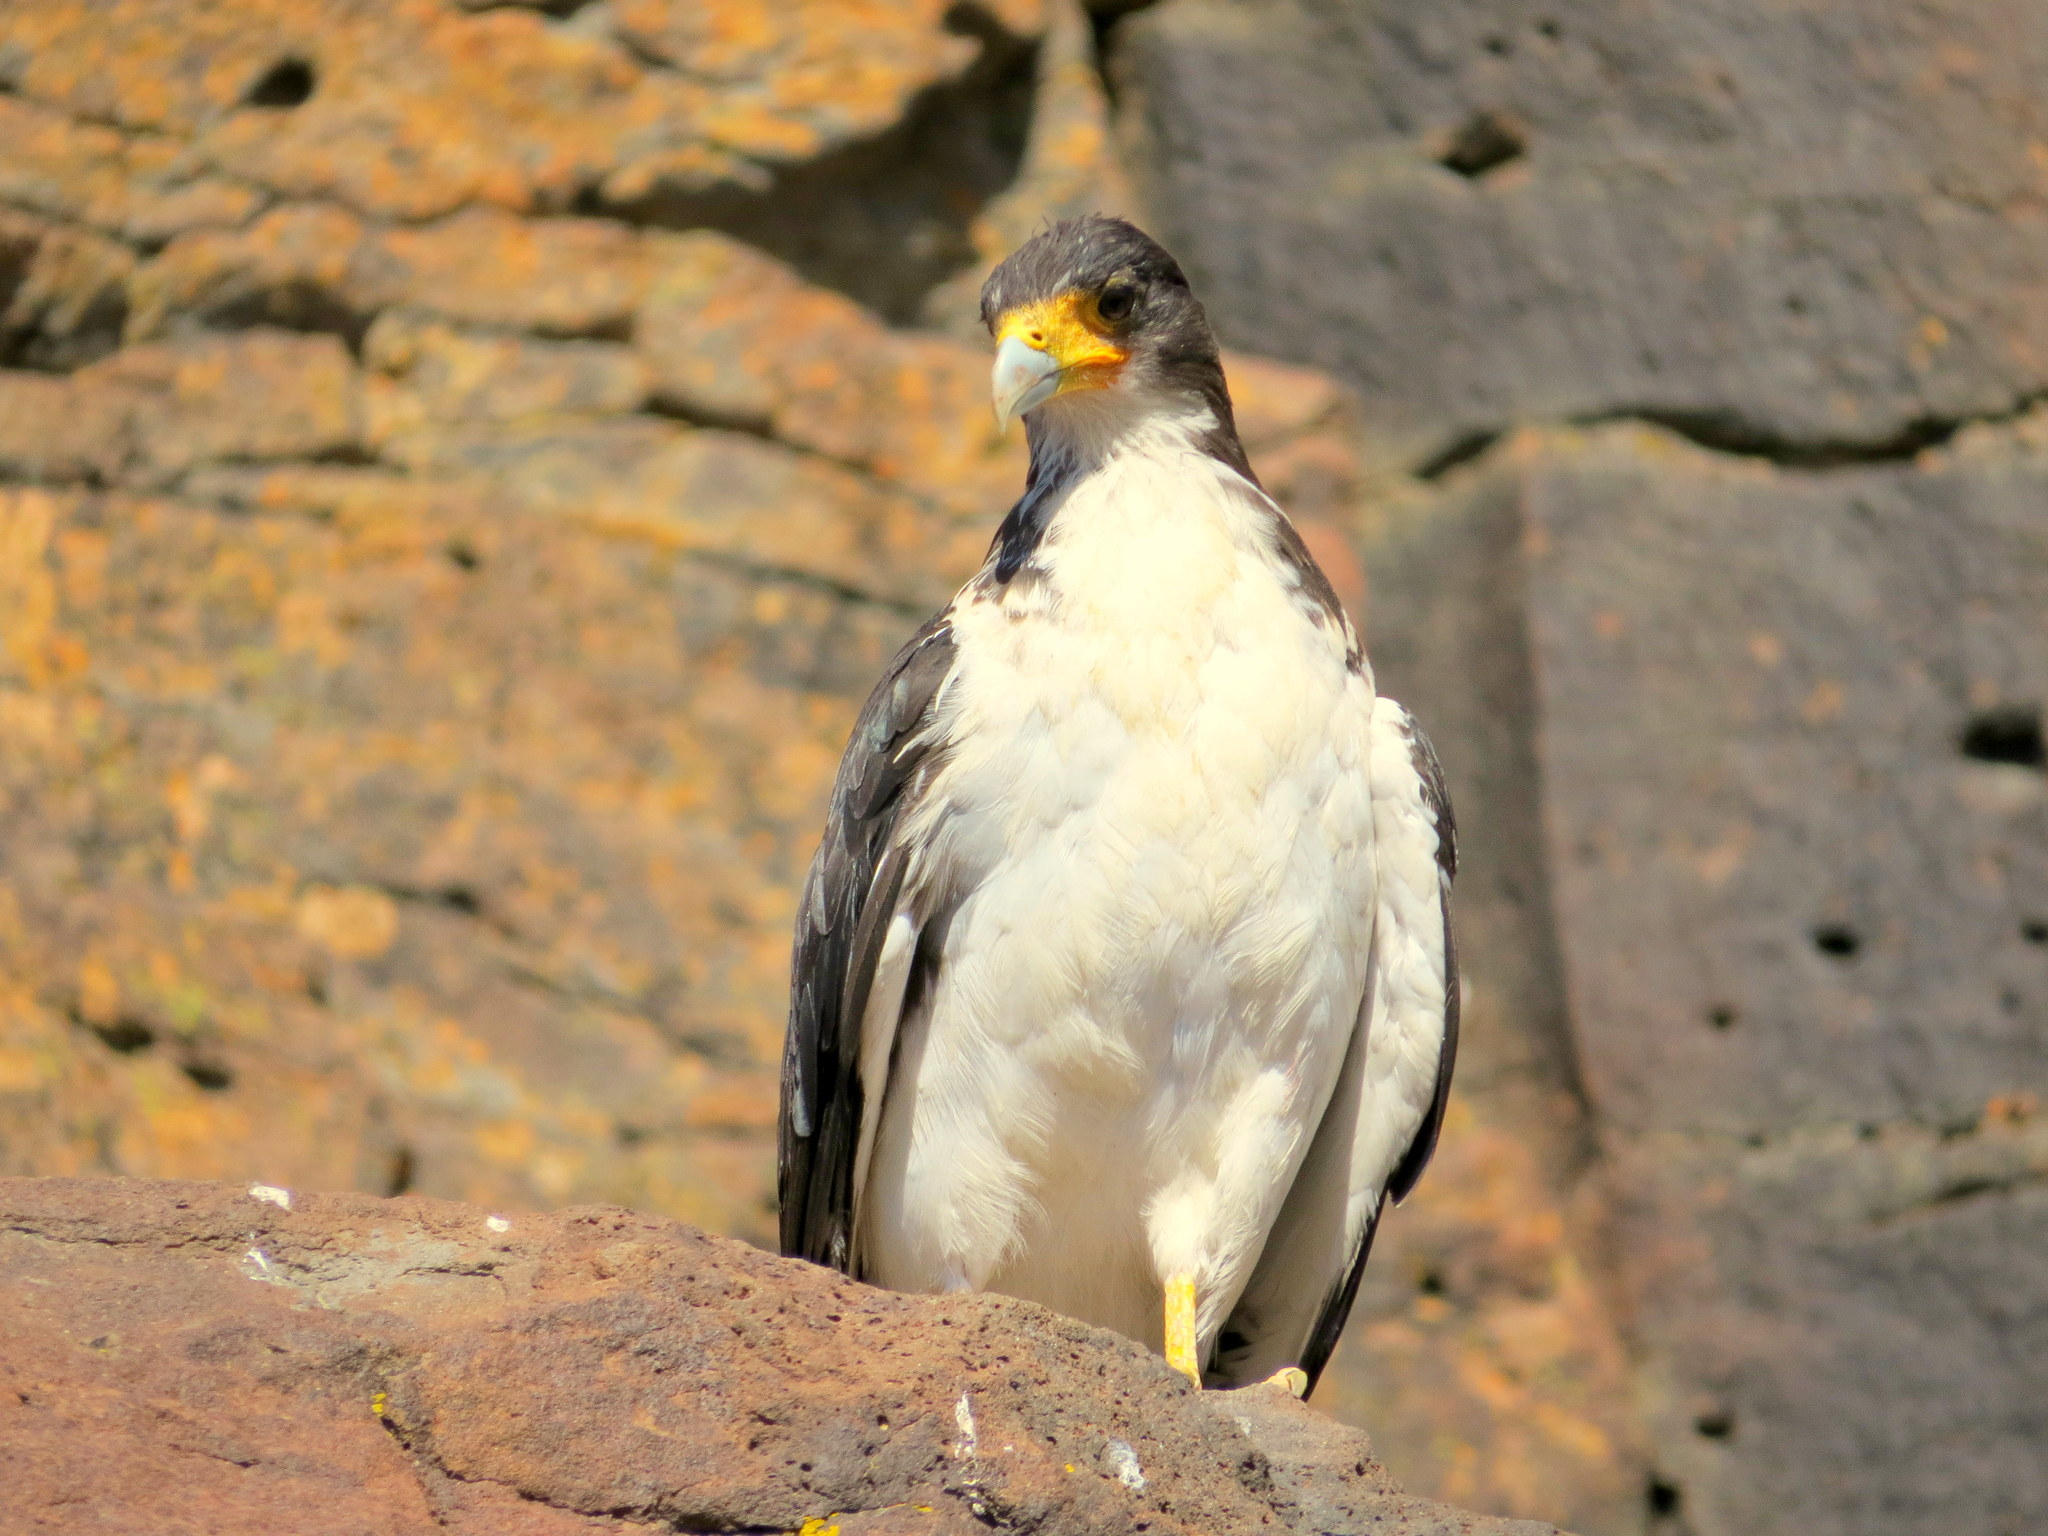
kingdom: Animalia
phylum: Chordata
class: Aves
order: Falconiformes
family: Falconidae
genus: Daptrius
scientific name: Daptrius
